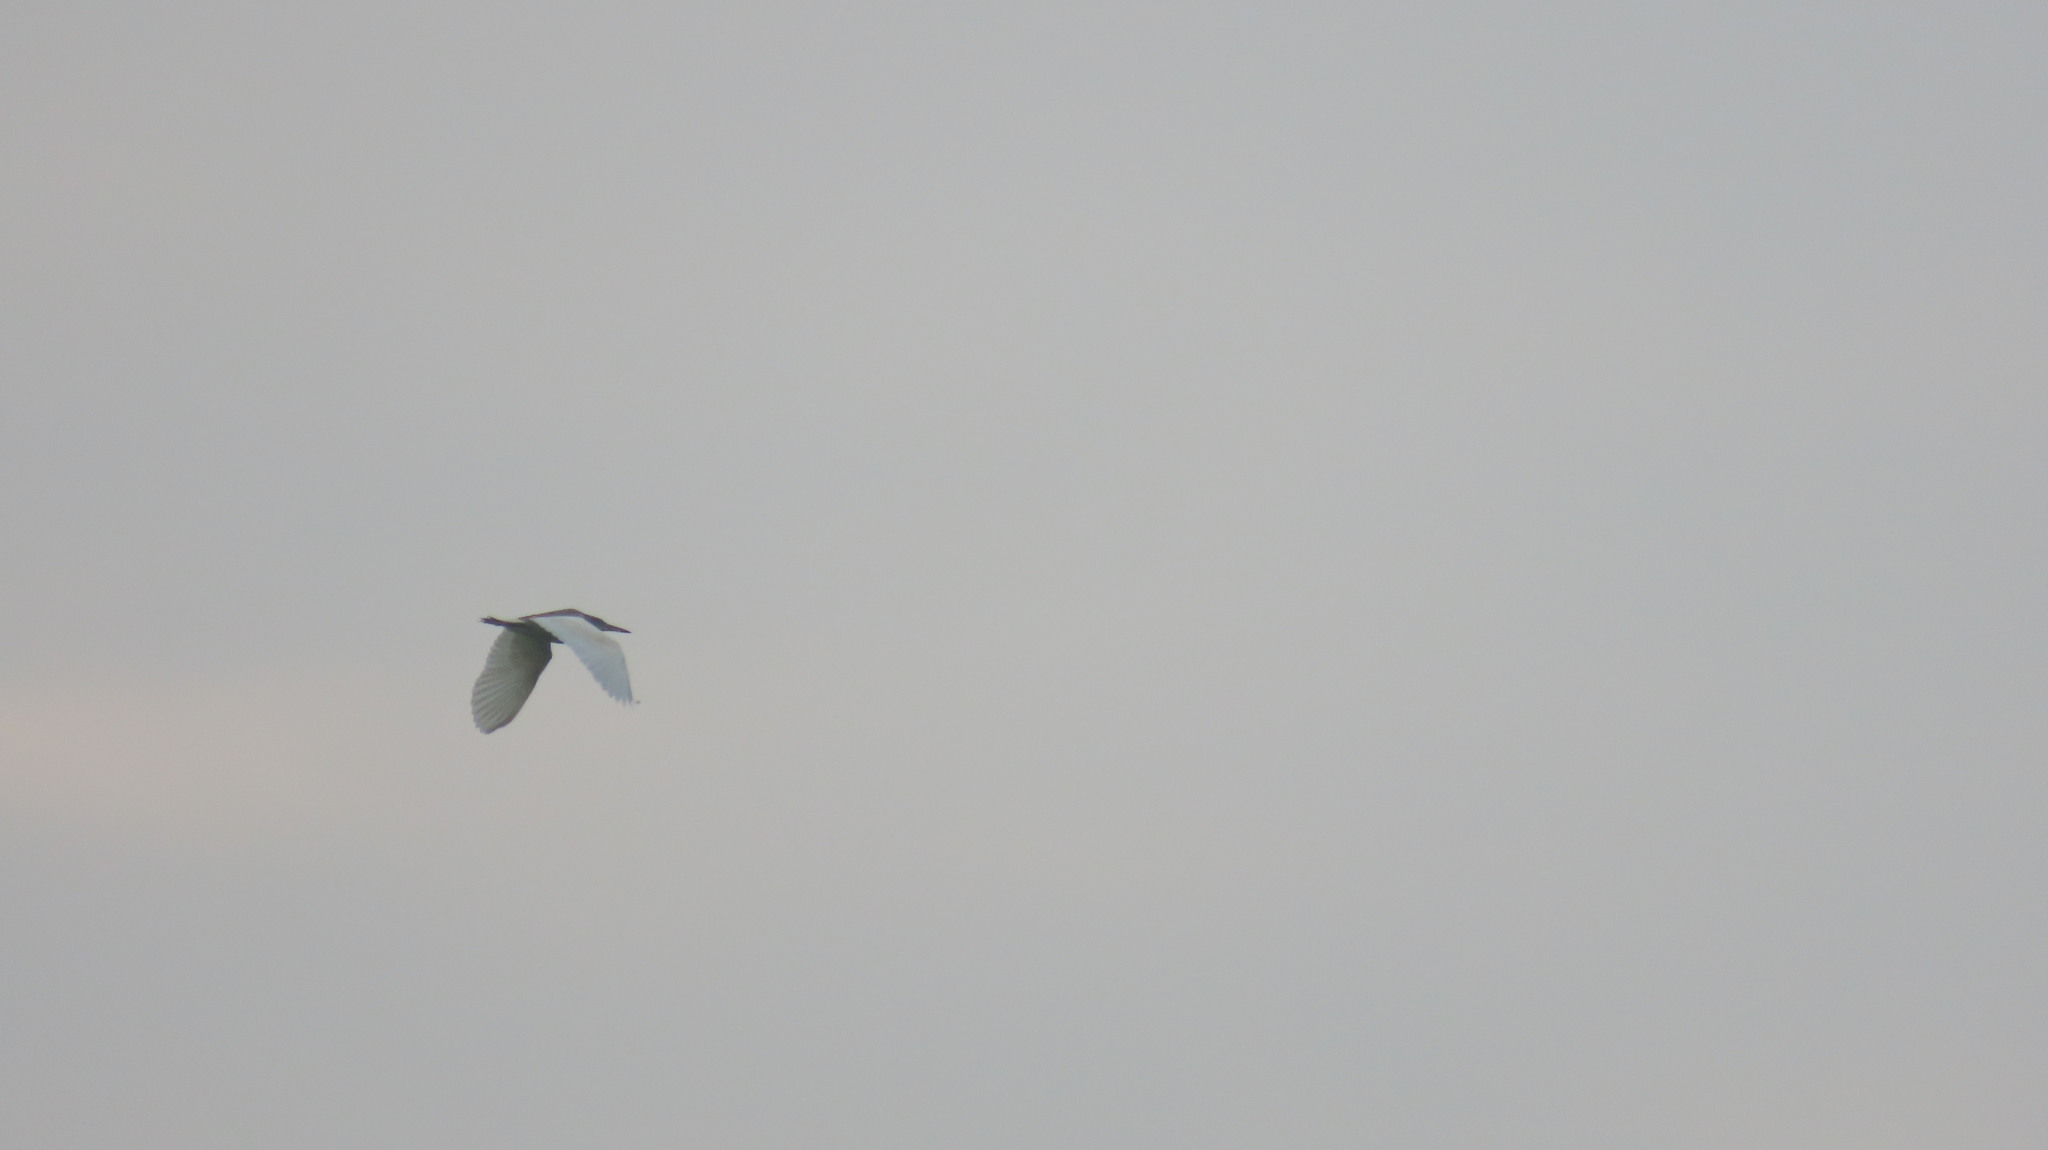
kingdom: Animalia
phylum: Chordata
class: Aves
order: Pelecaniformes
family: Ardeidae
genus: Ardeola
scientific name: Ardeola grayii
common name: Indian pond heron
